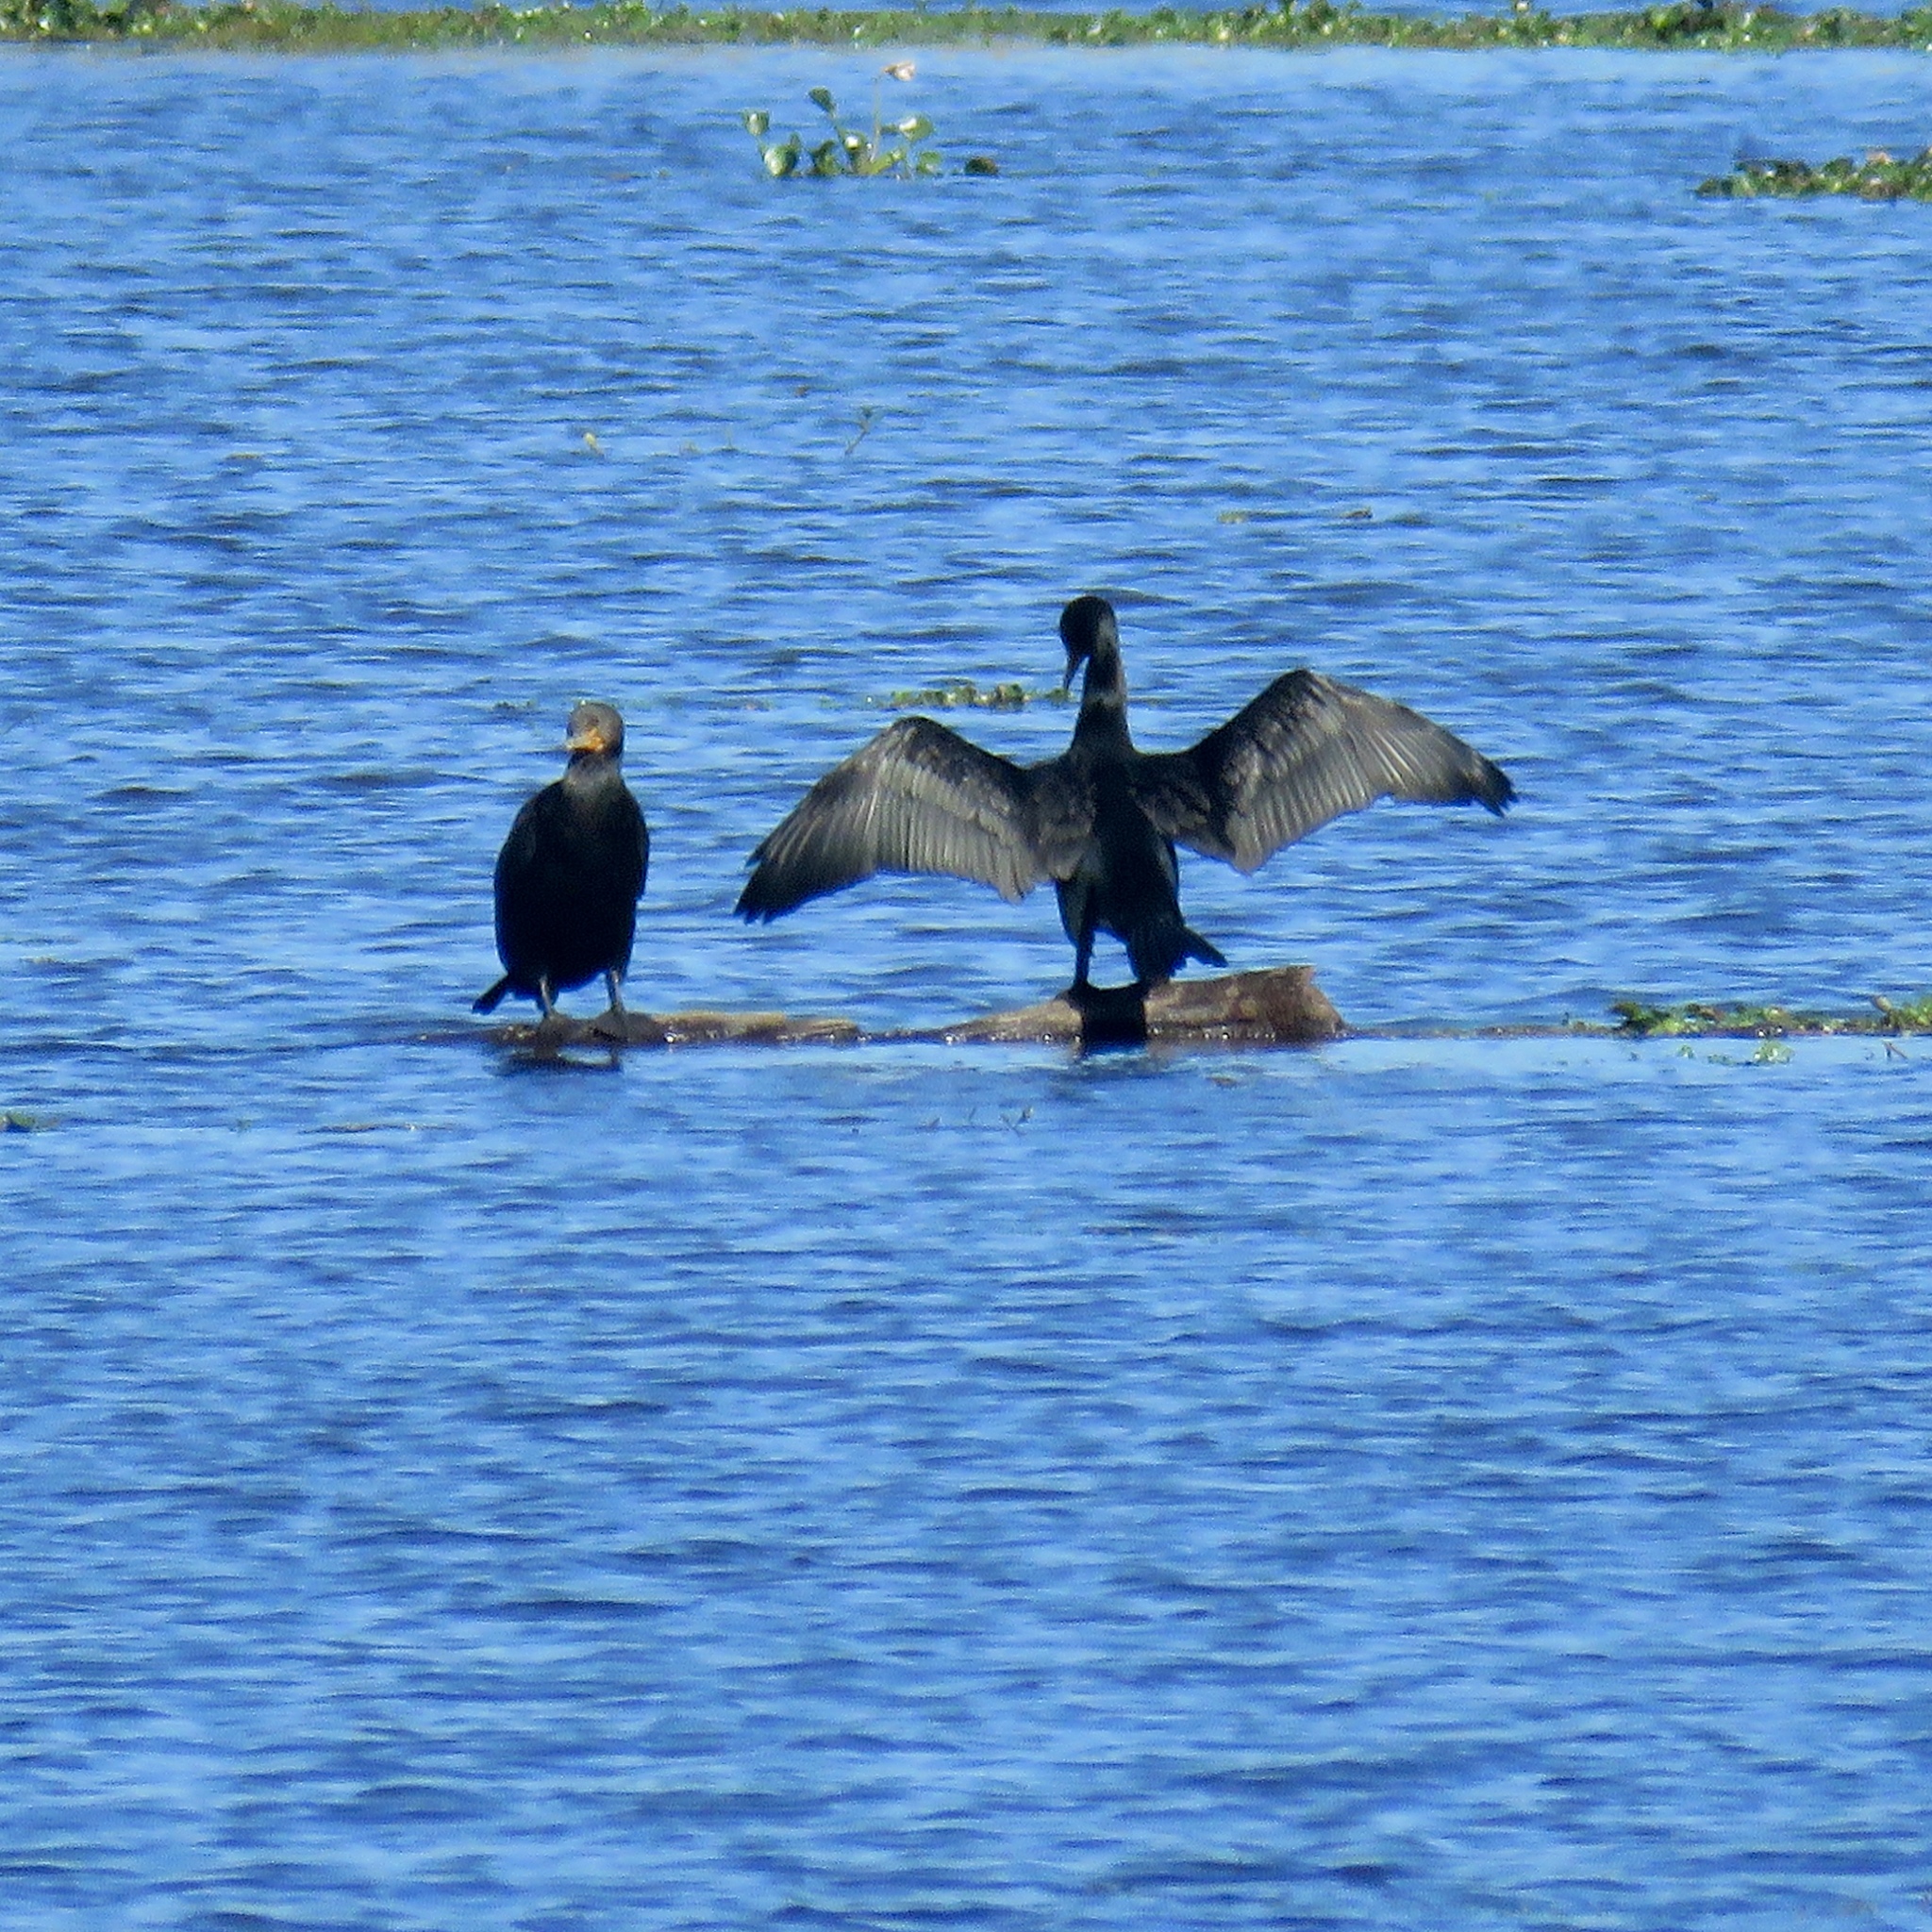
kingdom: Animalia
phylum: Chordata
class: Aves
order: Suliformes
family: Phalacrocoracidae
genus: Phalacrocorax
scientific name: Phalacrocorax auritus
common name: Double-crested cormorant
